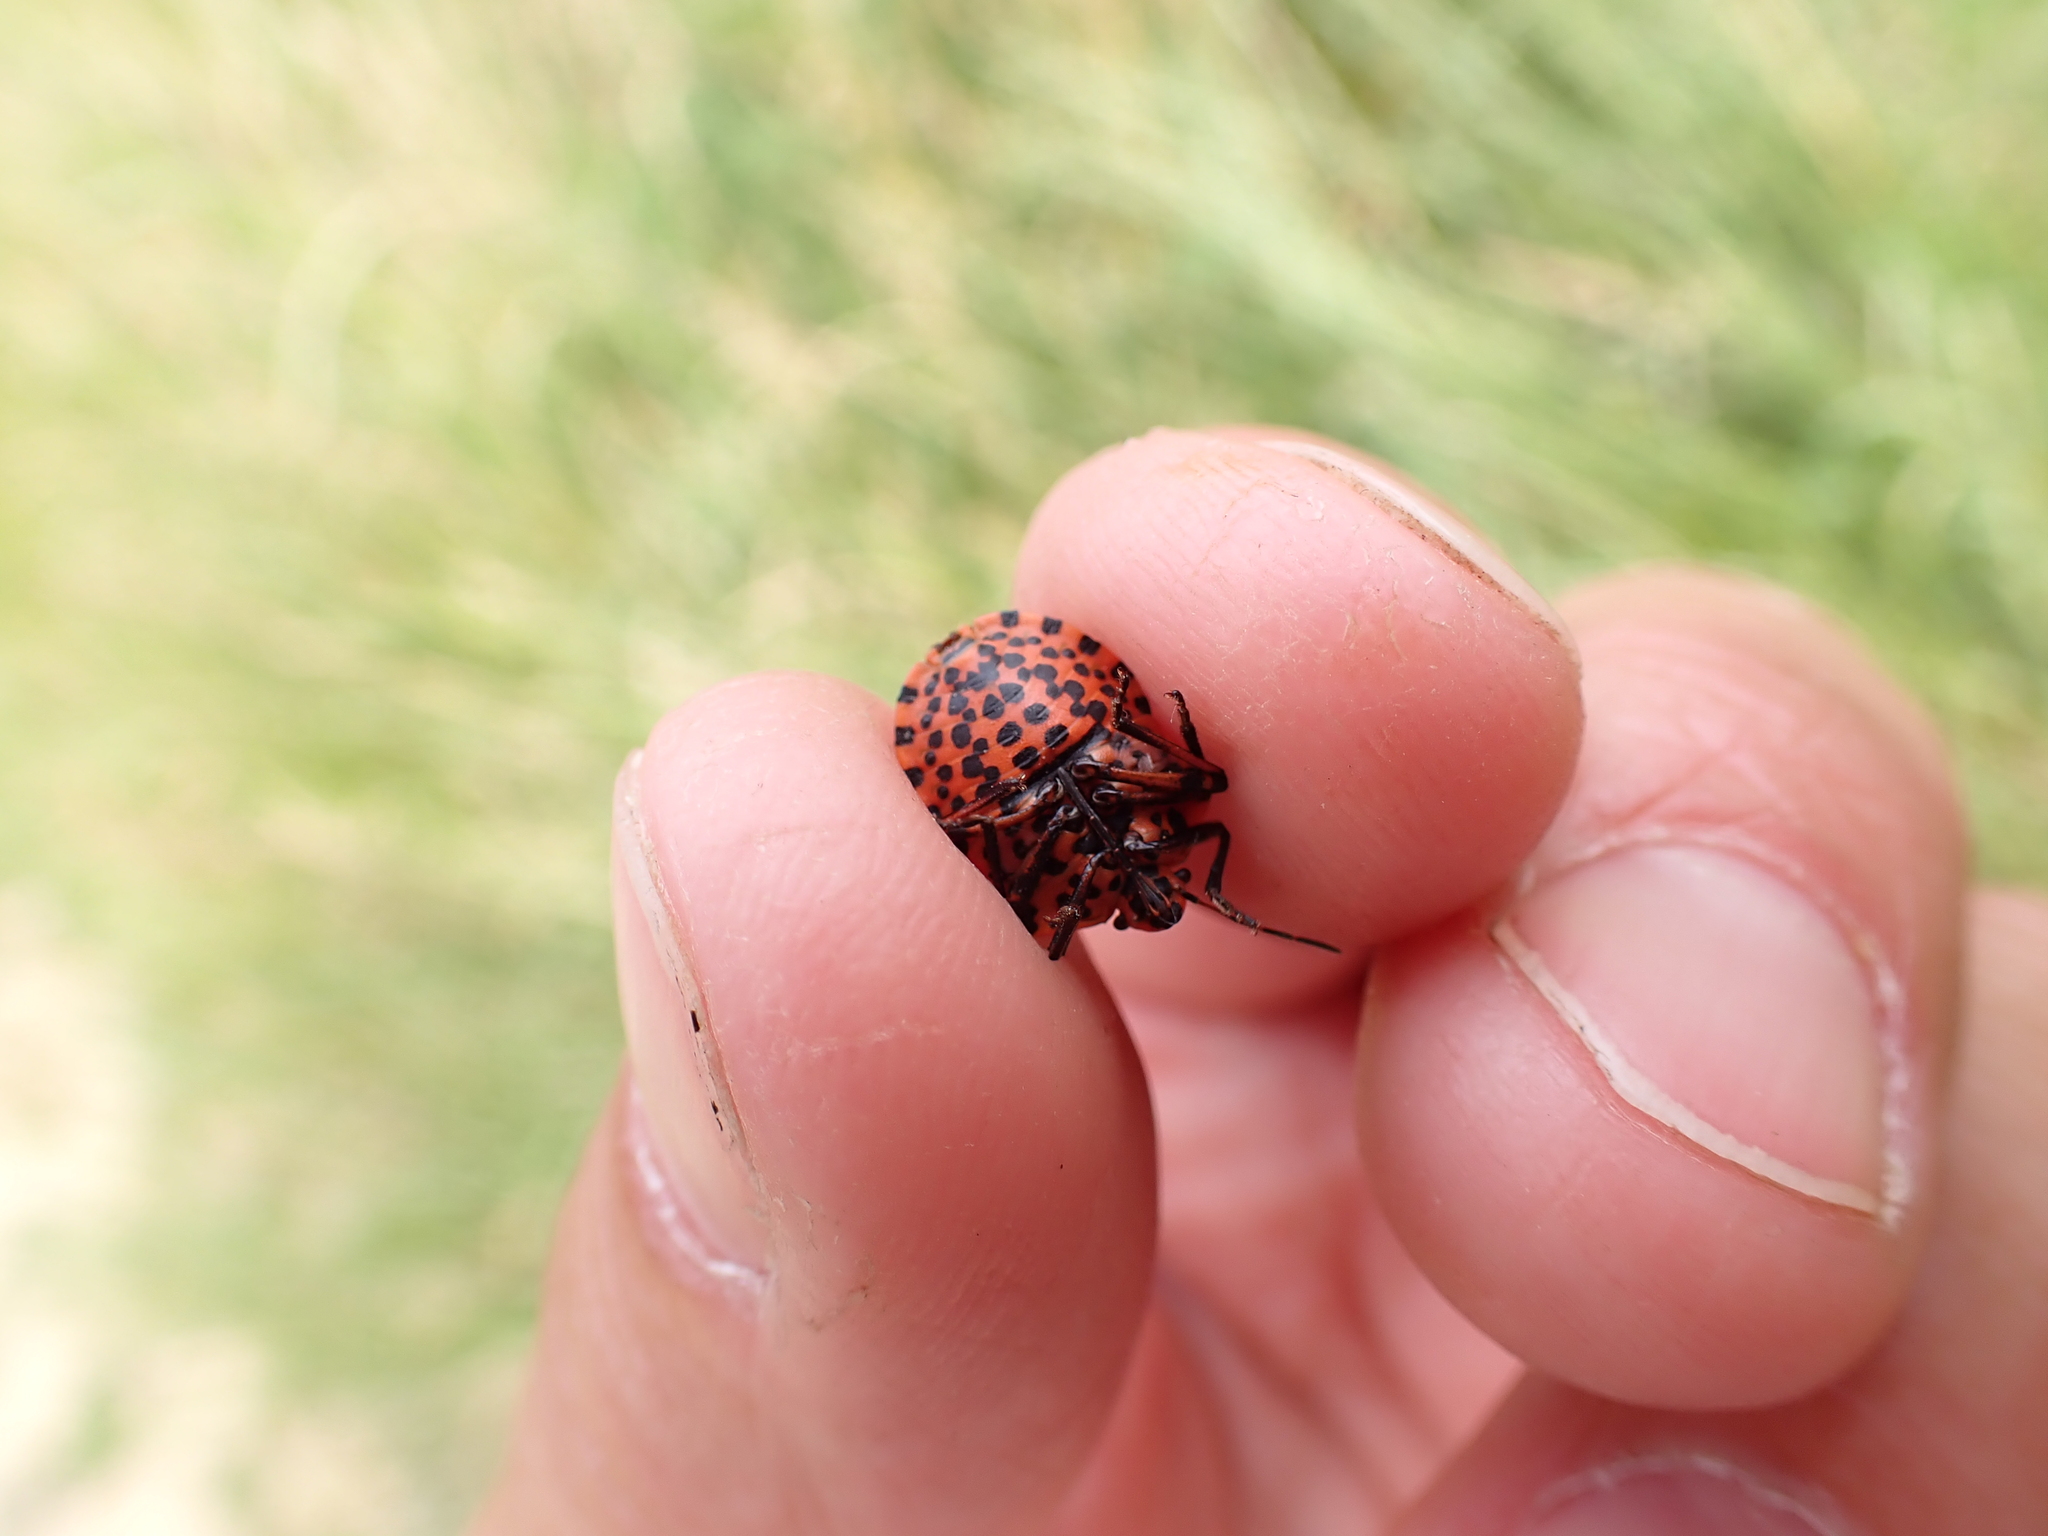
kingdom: Animalia
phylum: Arthropoda
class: Insecta
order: Hemiptera
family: Pentatomidae
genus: Graphosoma
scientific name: Graphosoma italicum
